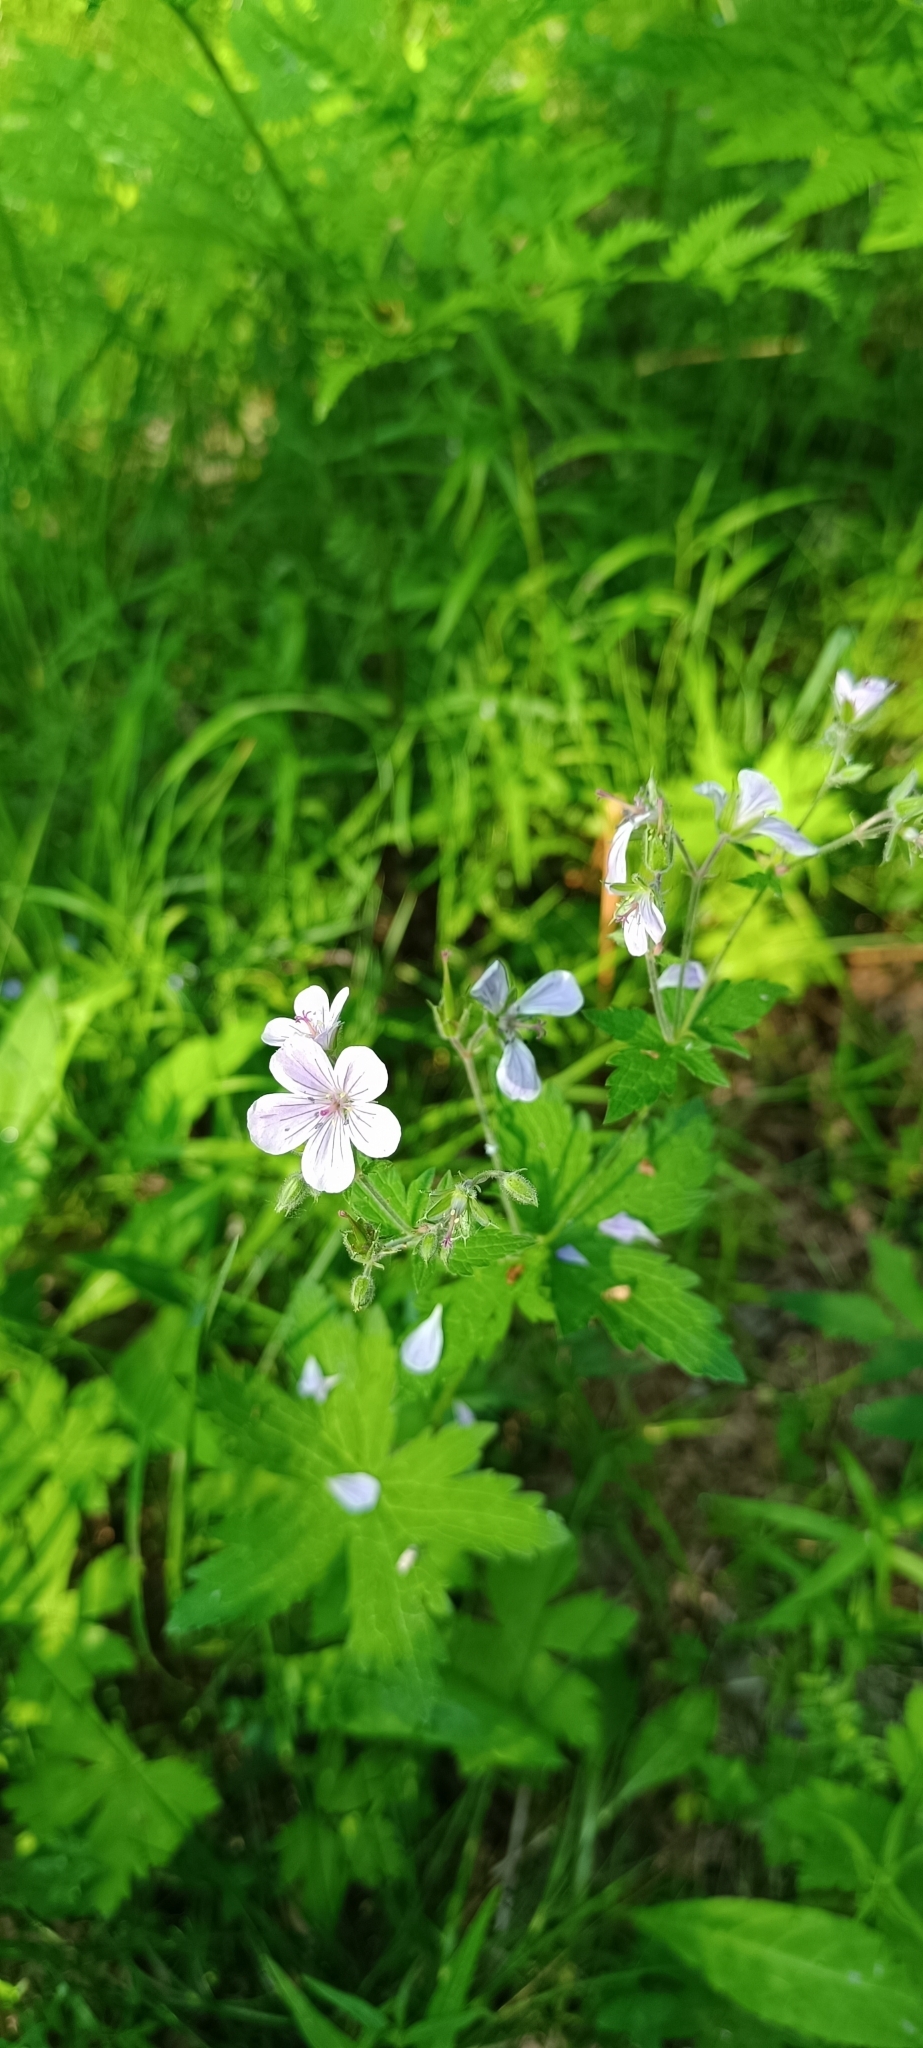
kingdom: Plantae
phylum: Tracheophyta
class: Magnoliopsida
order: Geraniales
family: Geraniaceae
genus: Geranium
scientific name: Geranium sylvaticum
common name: Wood crane's-bill
